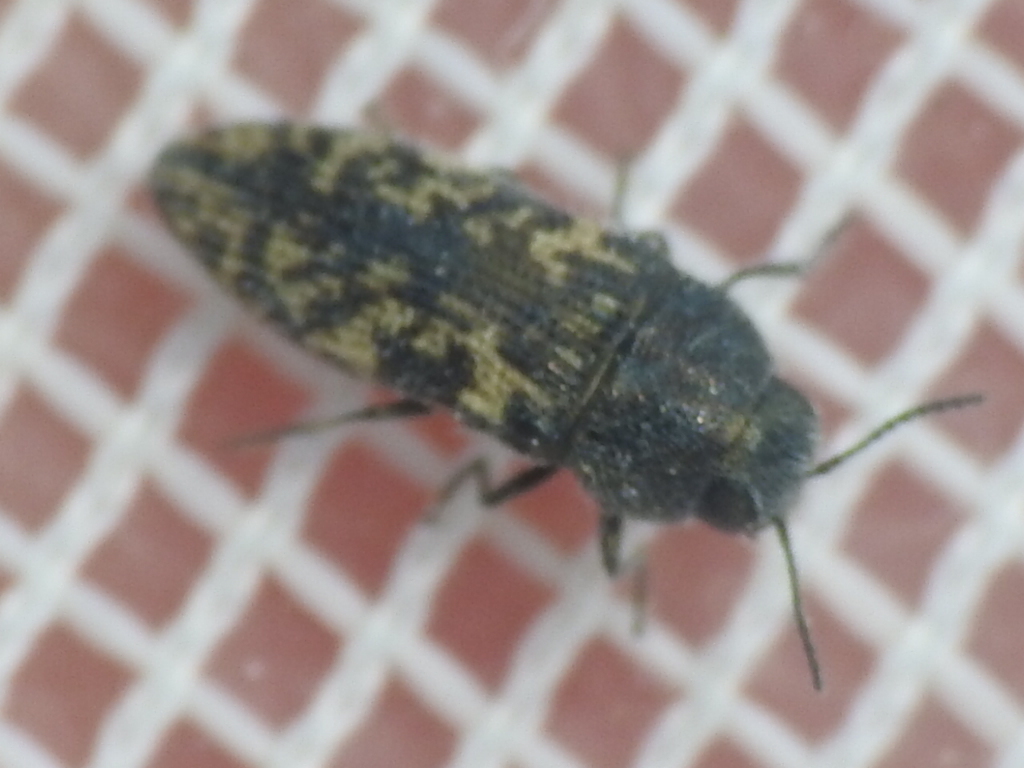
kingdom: Animalia
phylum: Arthropoda
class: Insecta
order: Coleoptera
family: Buprestidae
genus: Acmaeodera
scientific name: Acmaeodera neglecta
